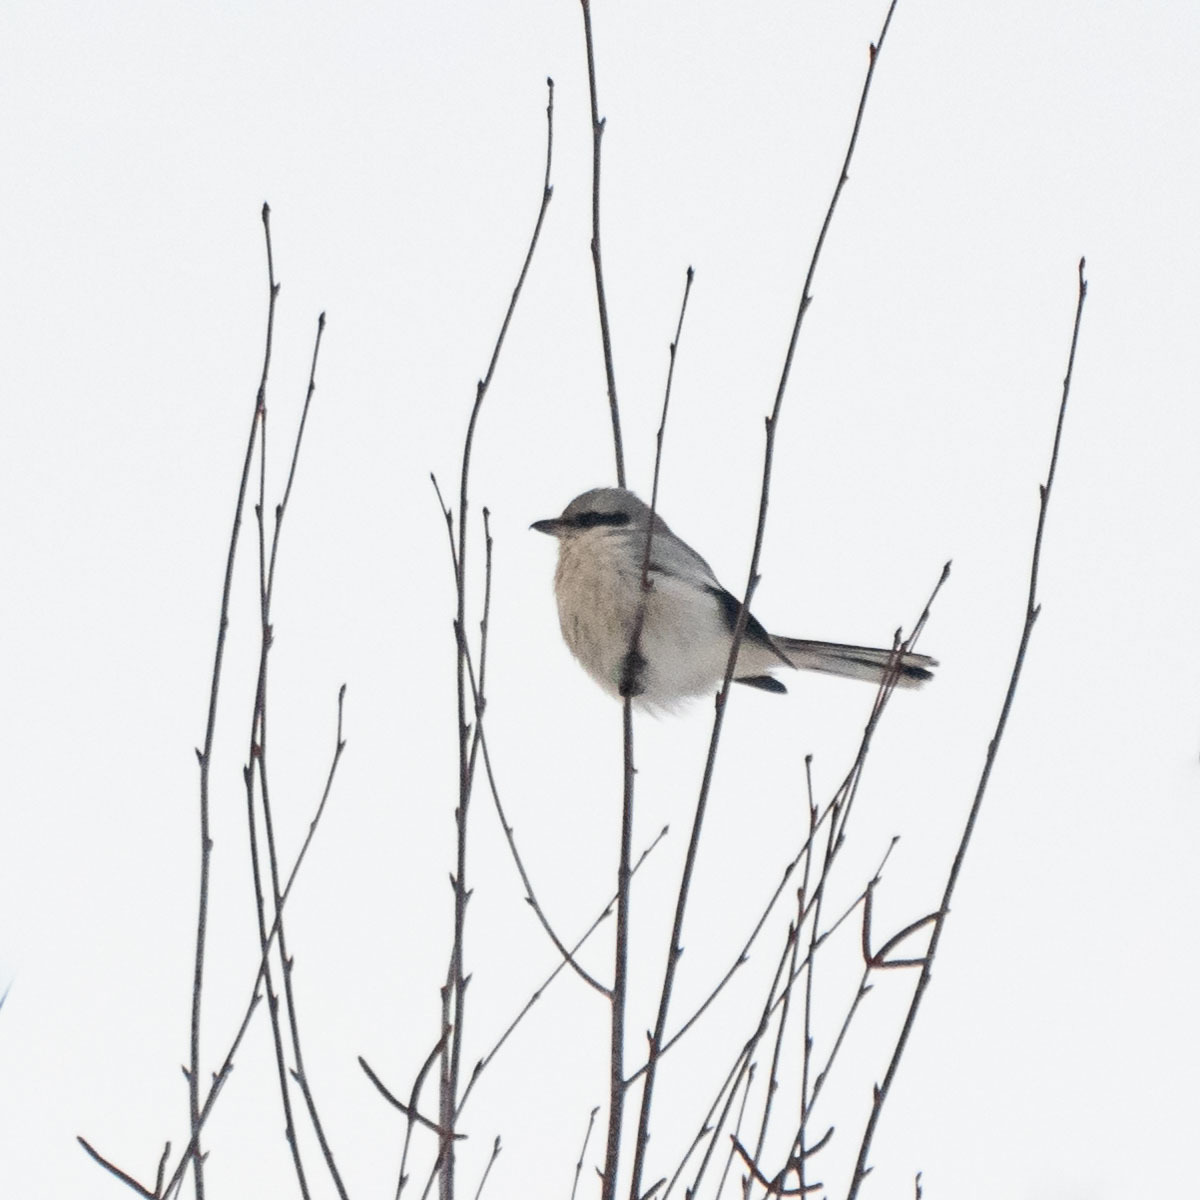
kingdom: Animalia
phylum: Chordata
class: Aves
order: Passeriformes
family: Laniidae
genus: Lanius
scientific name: Lanius excubitor
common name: Great grey shrike
